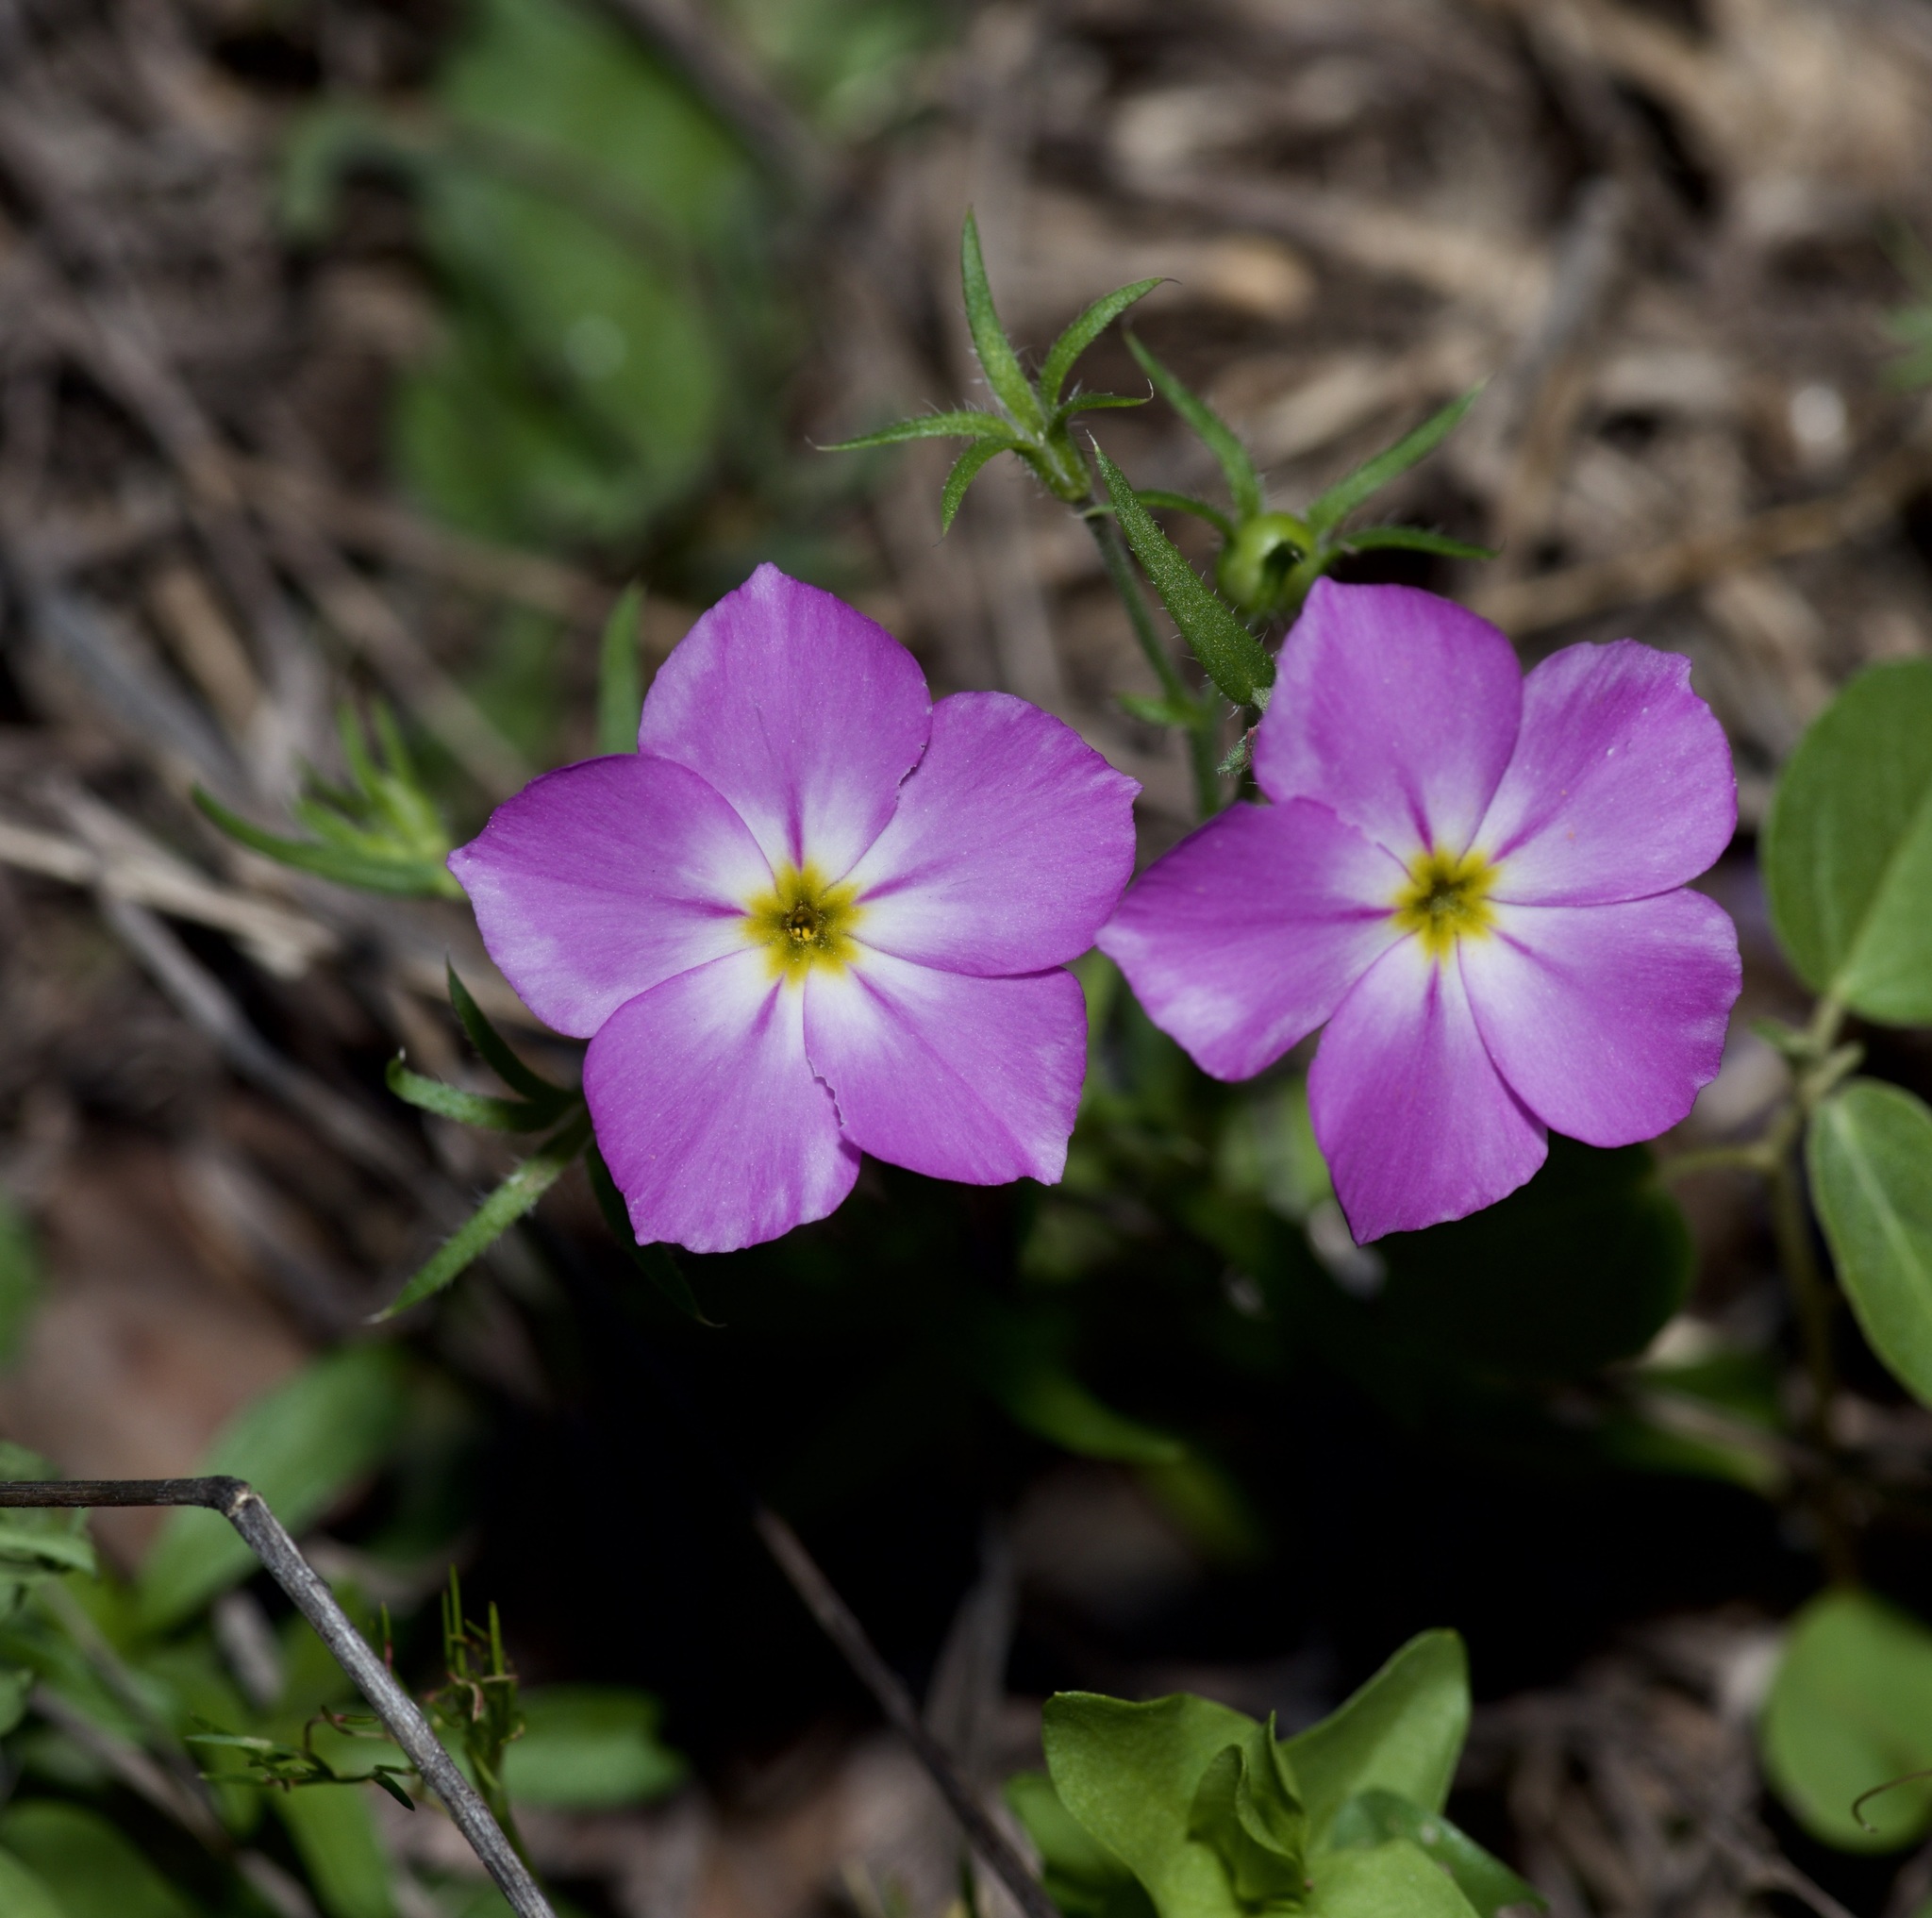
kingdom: Plantae
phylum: Tracheophyta
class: Magnoliopsida
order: Ericales
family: Polemoniaceae
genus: Phlox
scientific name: Phlox roemeriana
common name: Roemer's phlox
